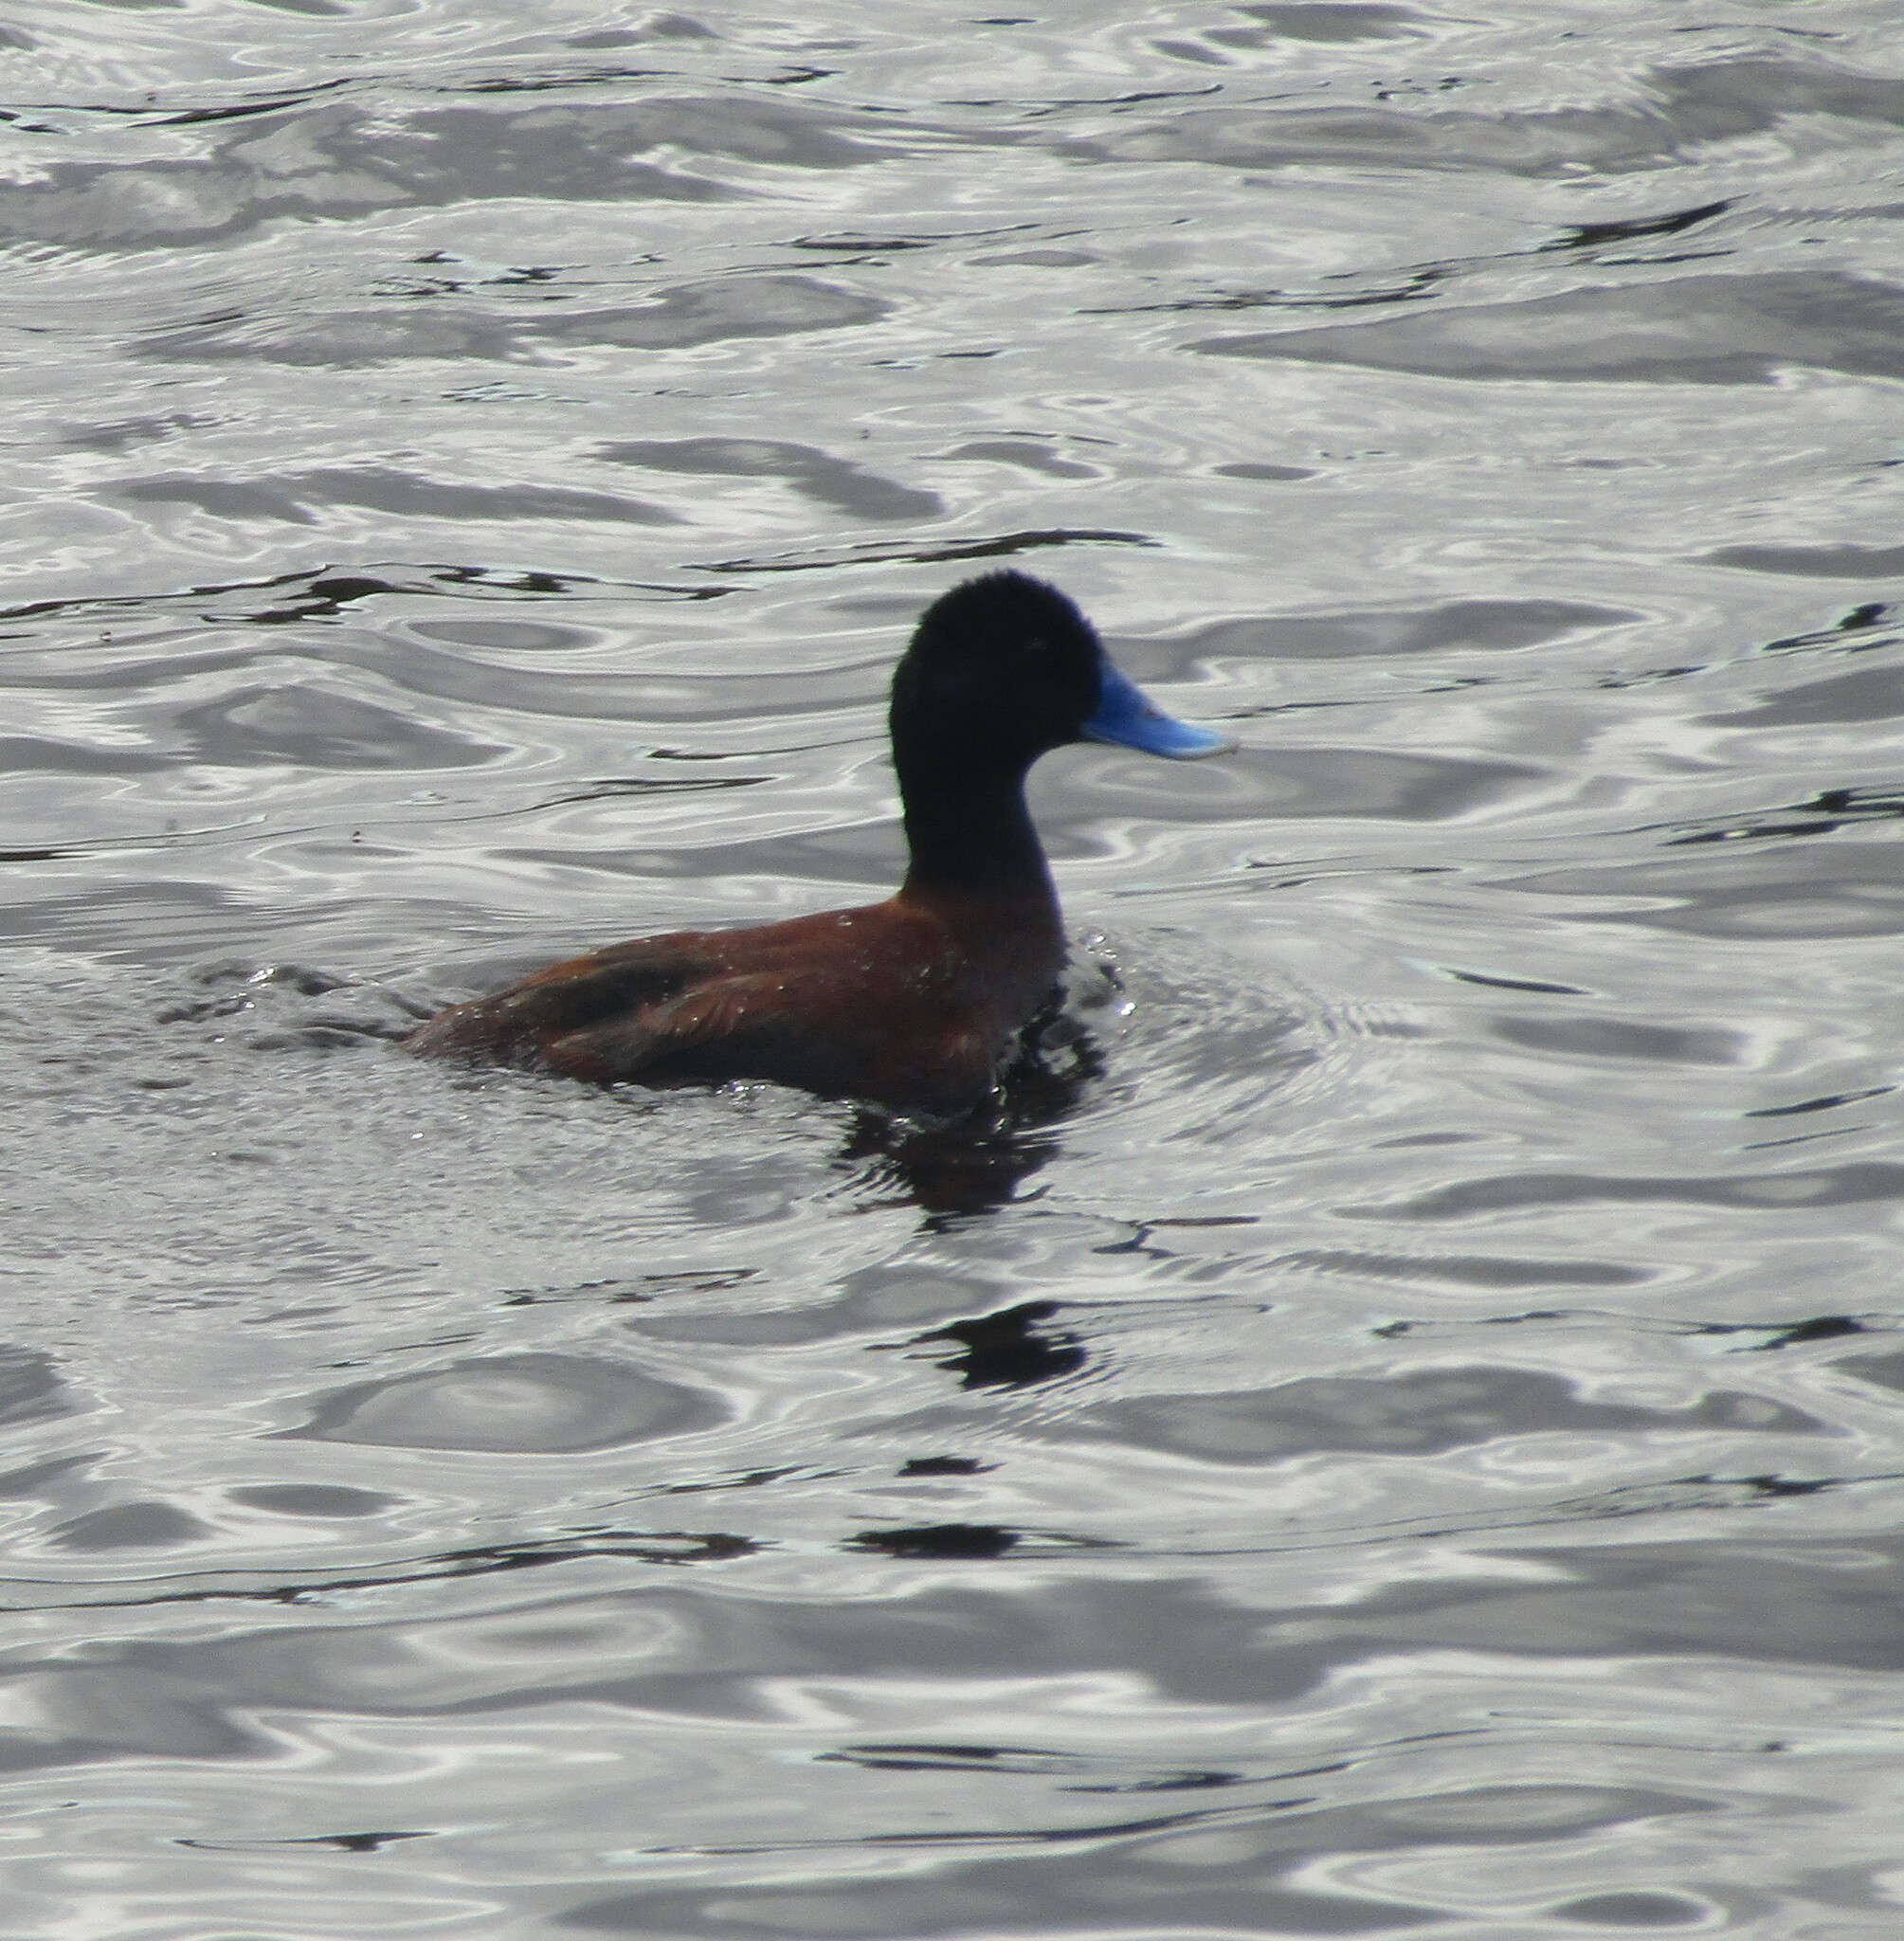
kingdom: Animalia
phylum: Chordata
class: Aves
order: Anseriformes
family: Anatidae
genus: Oxyura
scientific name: Oxyura australis
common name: Blue-billed duck
